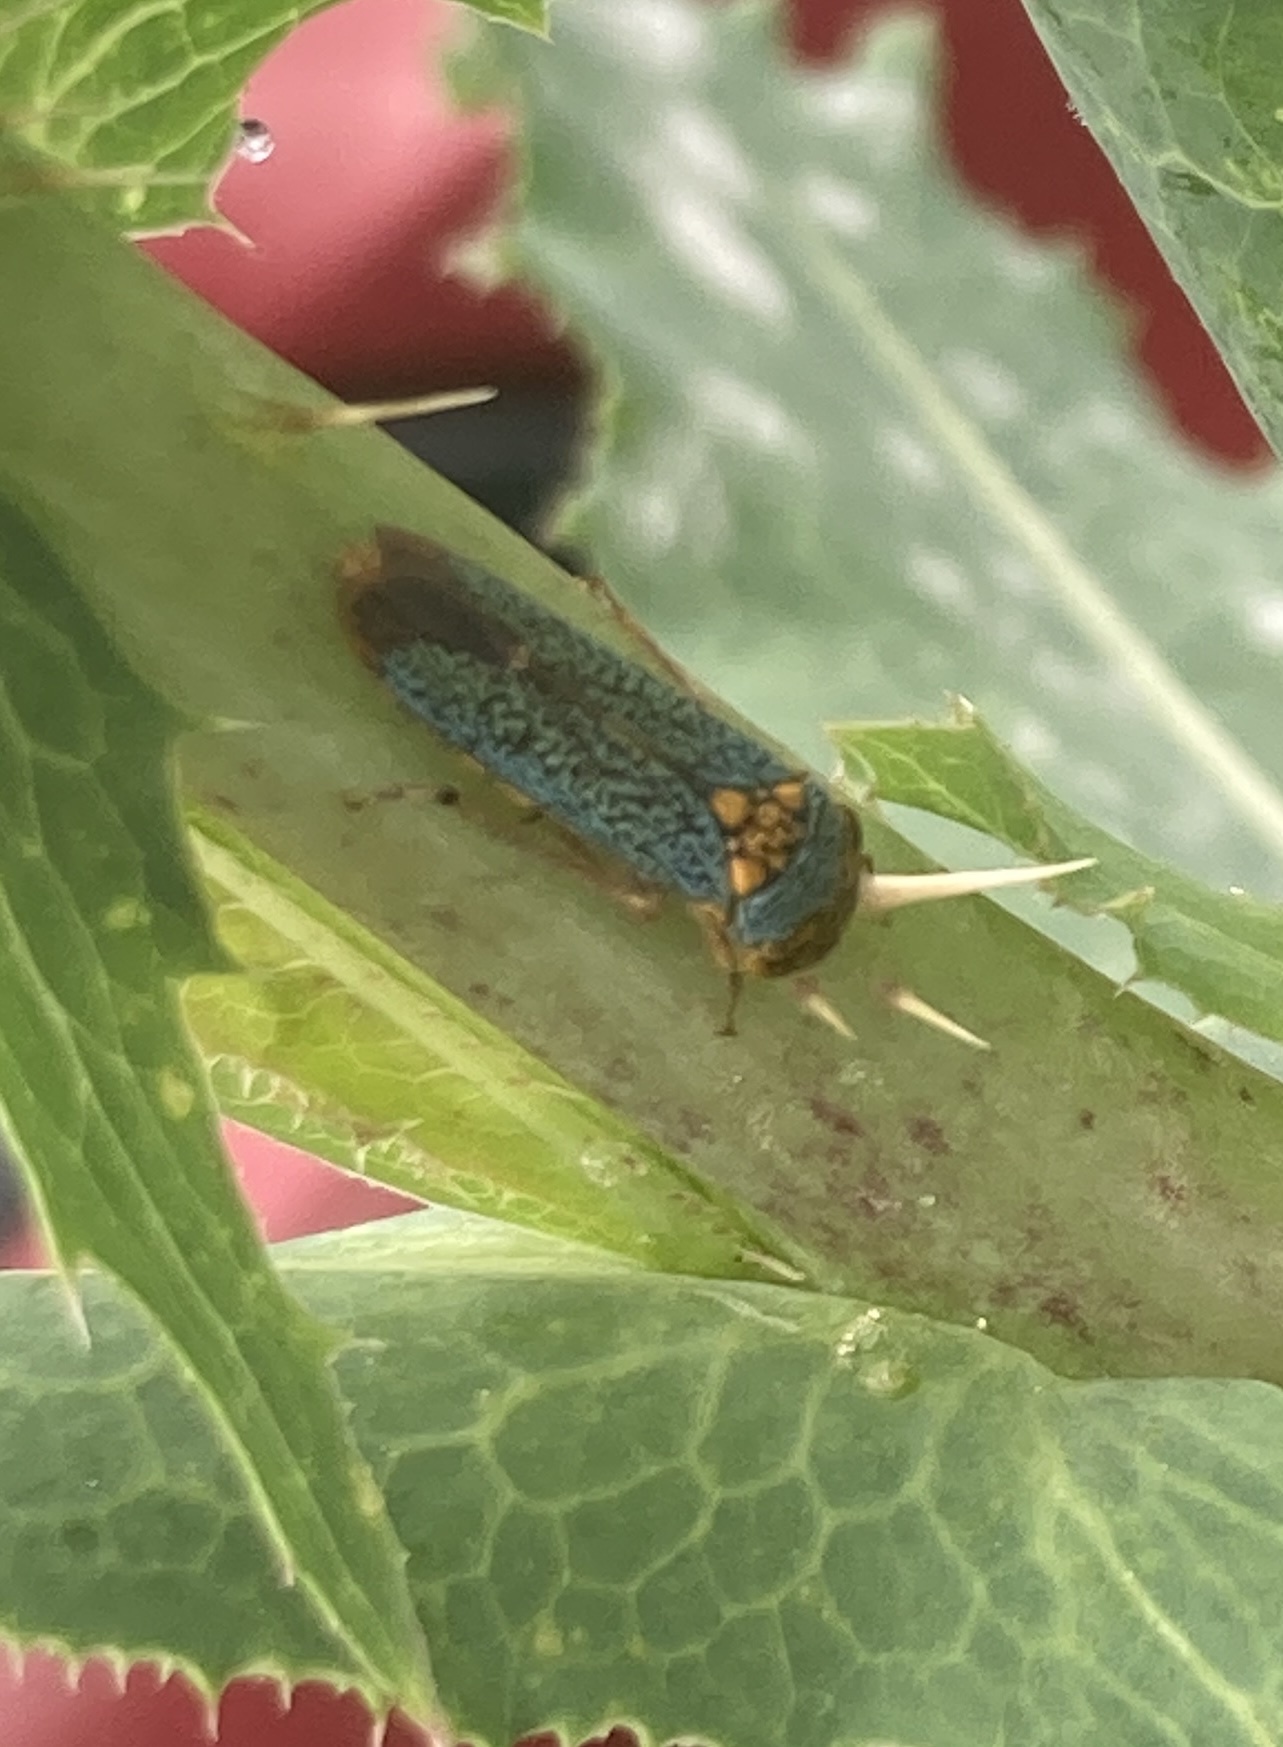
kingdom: Animalia
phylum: Arthropoda
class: Insecta
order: Hemiptera
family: Cicadellidae
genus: Oncometopia
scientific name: Oncometopia orbona
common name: Broad-headed sharpshooter
